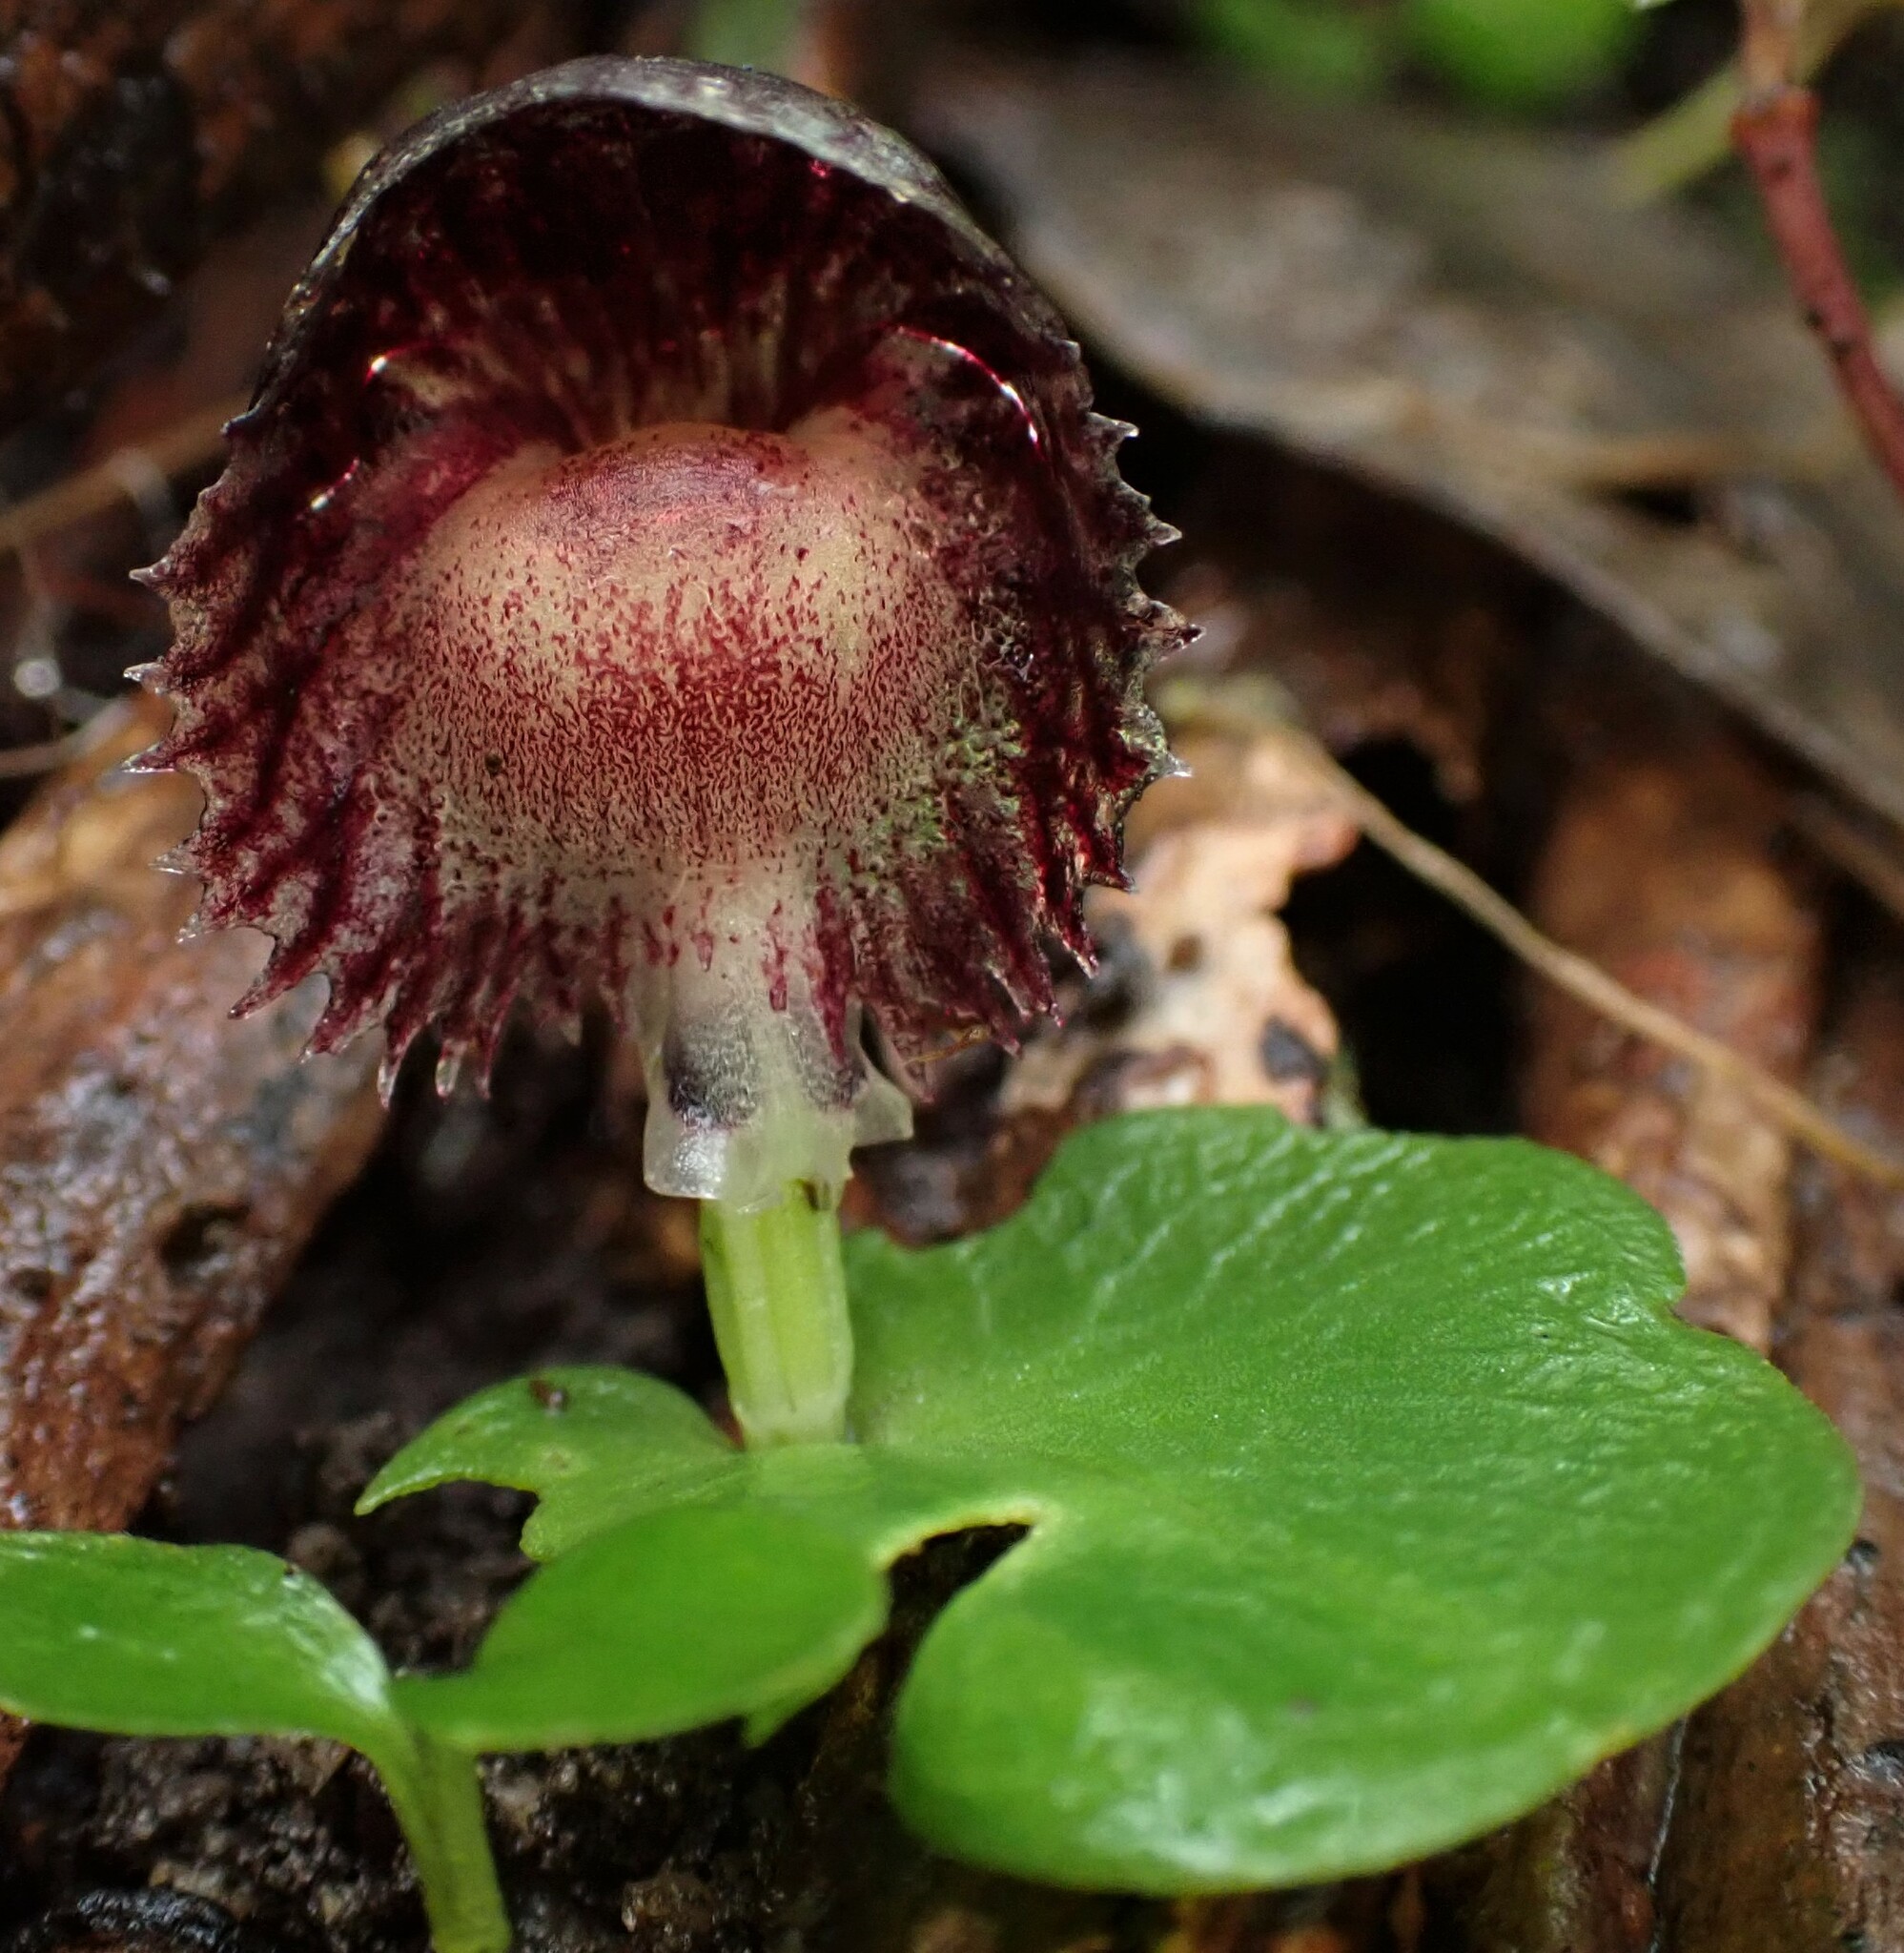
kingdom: Plantae
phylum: Tracheophyta
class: Liliopsida
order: Asparagales
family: Orchidaceae
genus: Corybas
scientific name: Corybas diemenicus
